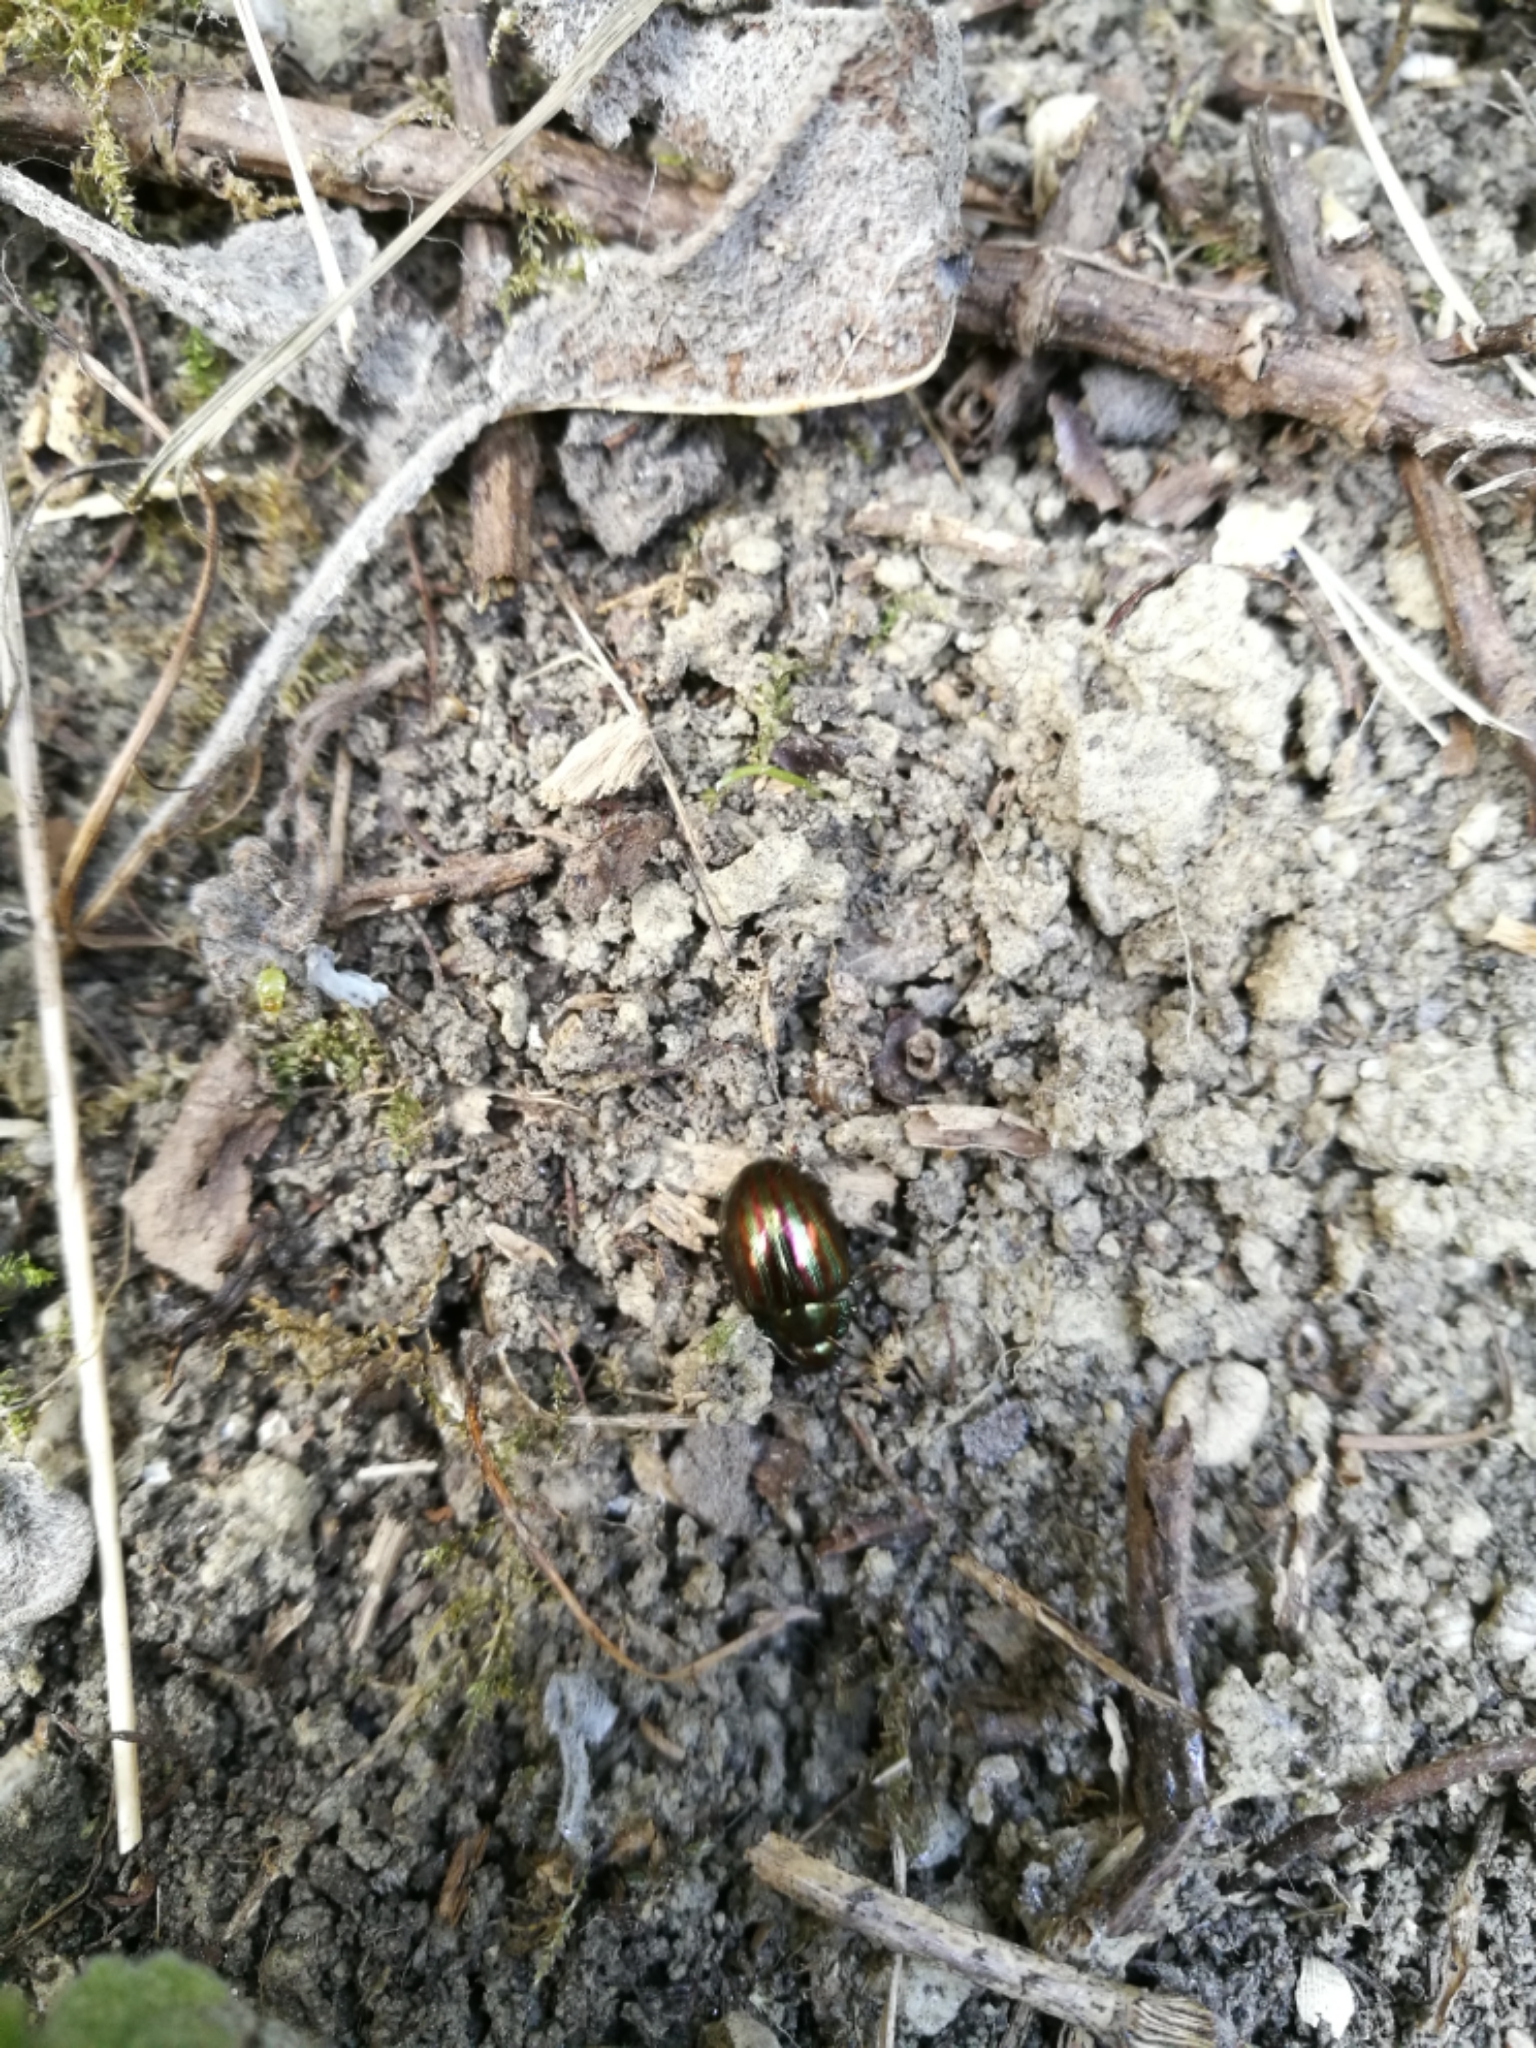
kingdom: Animalia
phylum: Arthropoda
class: Insecta
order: Coleoptera
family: Chrysomelidae
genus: Chrysolina
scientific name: Chrysolina americana
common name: Rosemary beetle
